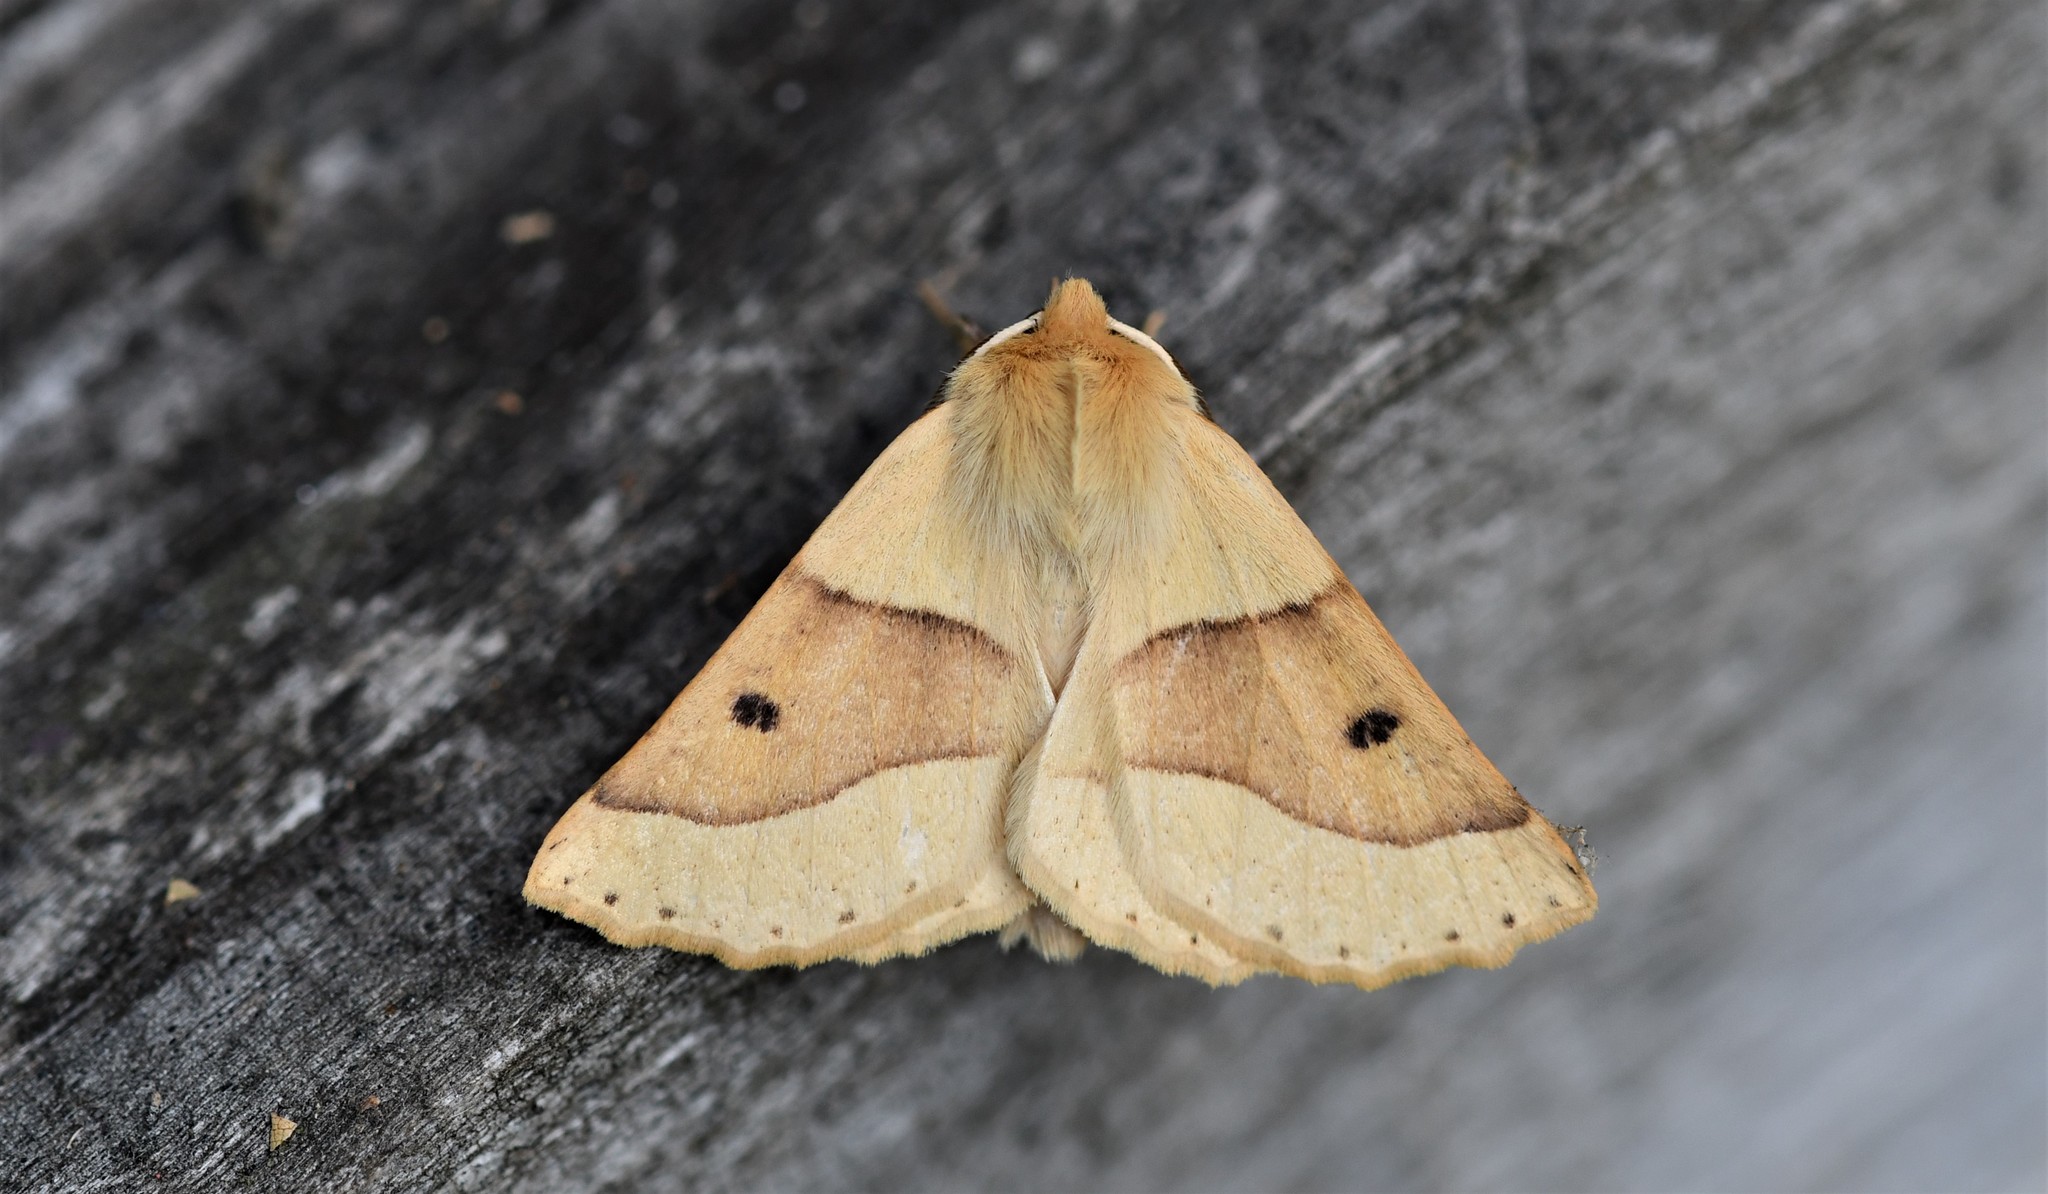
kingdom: Animalia
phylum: Arthropoda
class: Insecta
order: Lepidoptera
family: Geometridae
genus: Crocallis
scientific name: Crocallis elinguaria
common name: Scalloped oak
